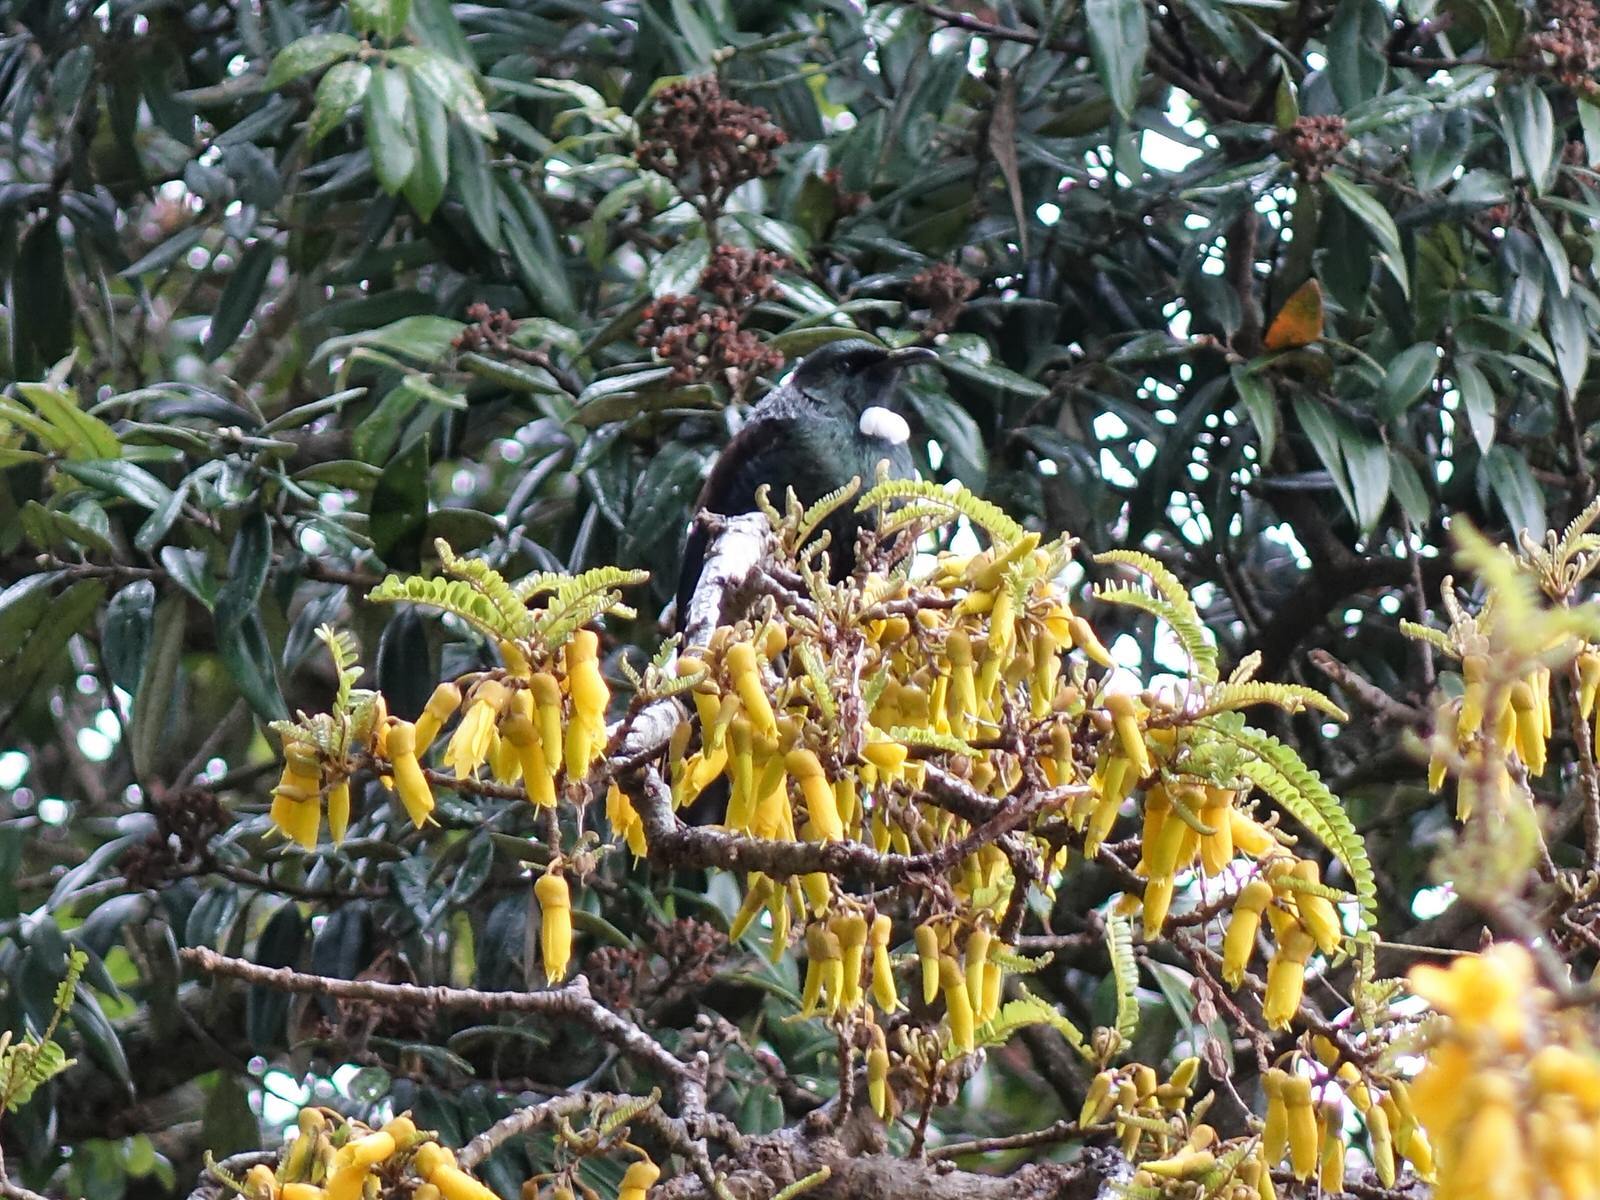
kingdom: Animalia
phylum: Chordata
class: Aves
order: Passeriformes
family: Meliphagidae
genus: Prosthemadera
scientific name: Prosthemadera novaeseelandiae
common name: Tui
